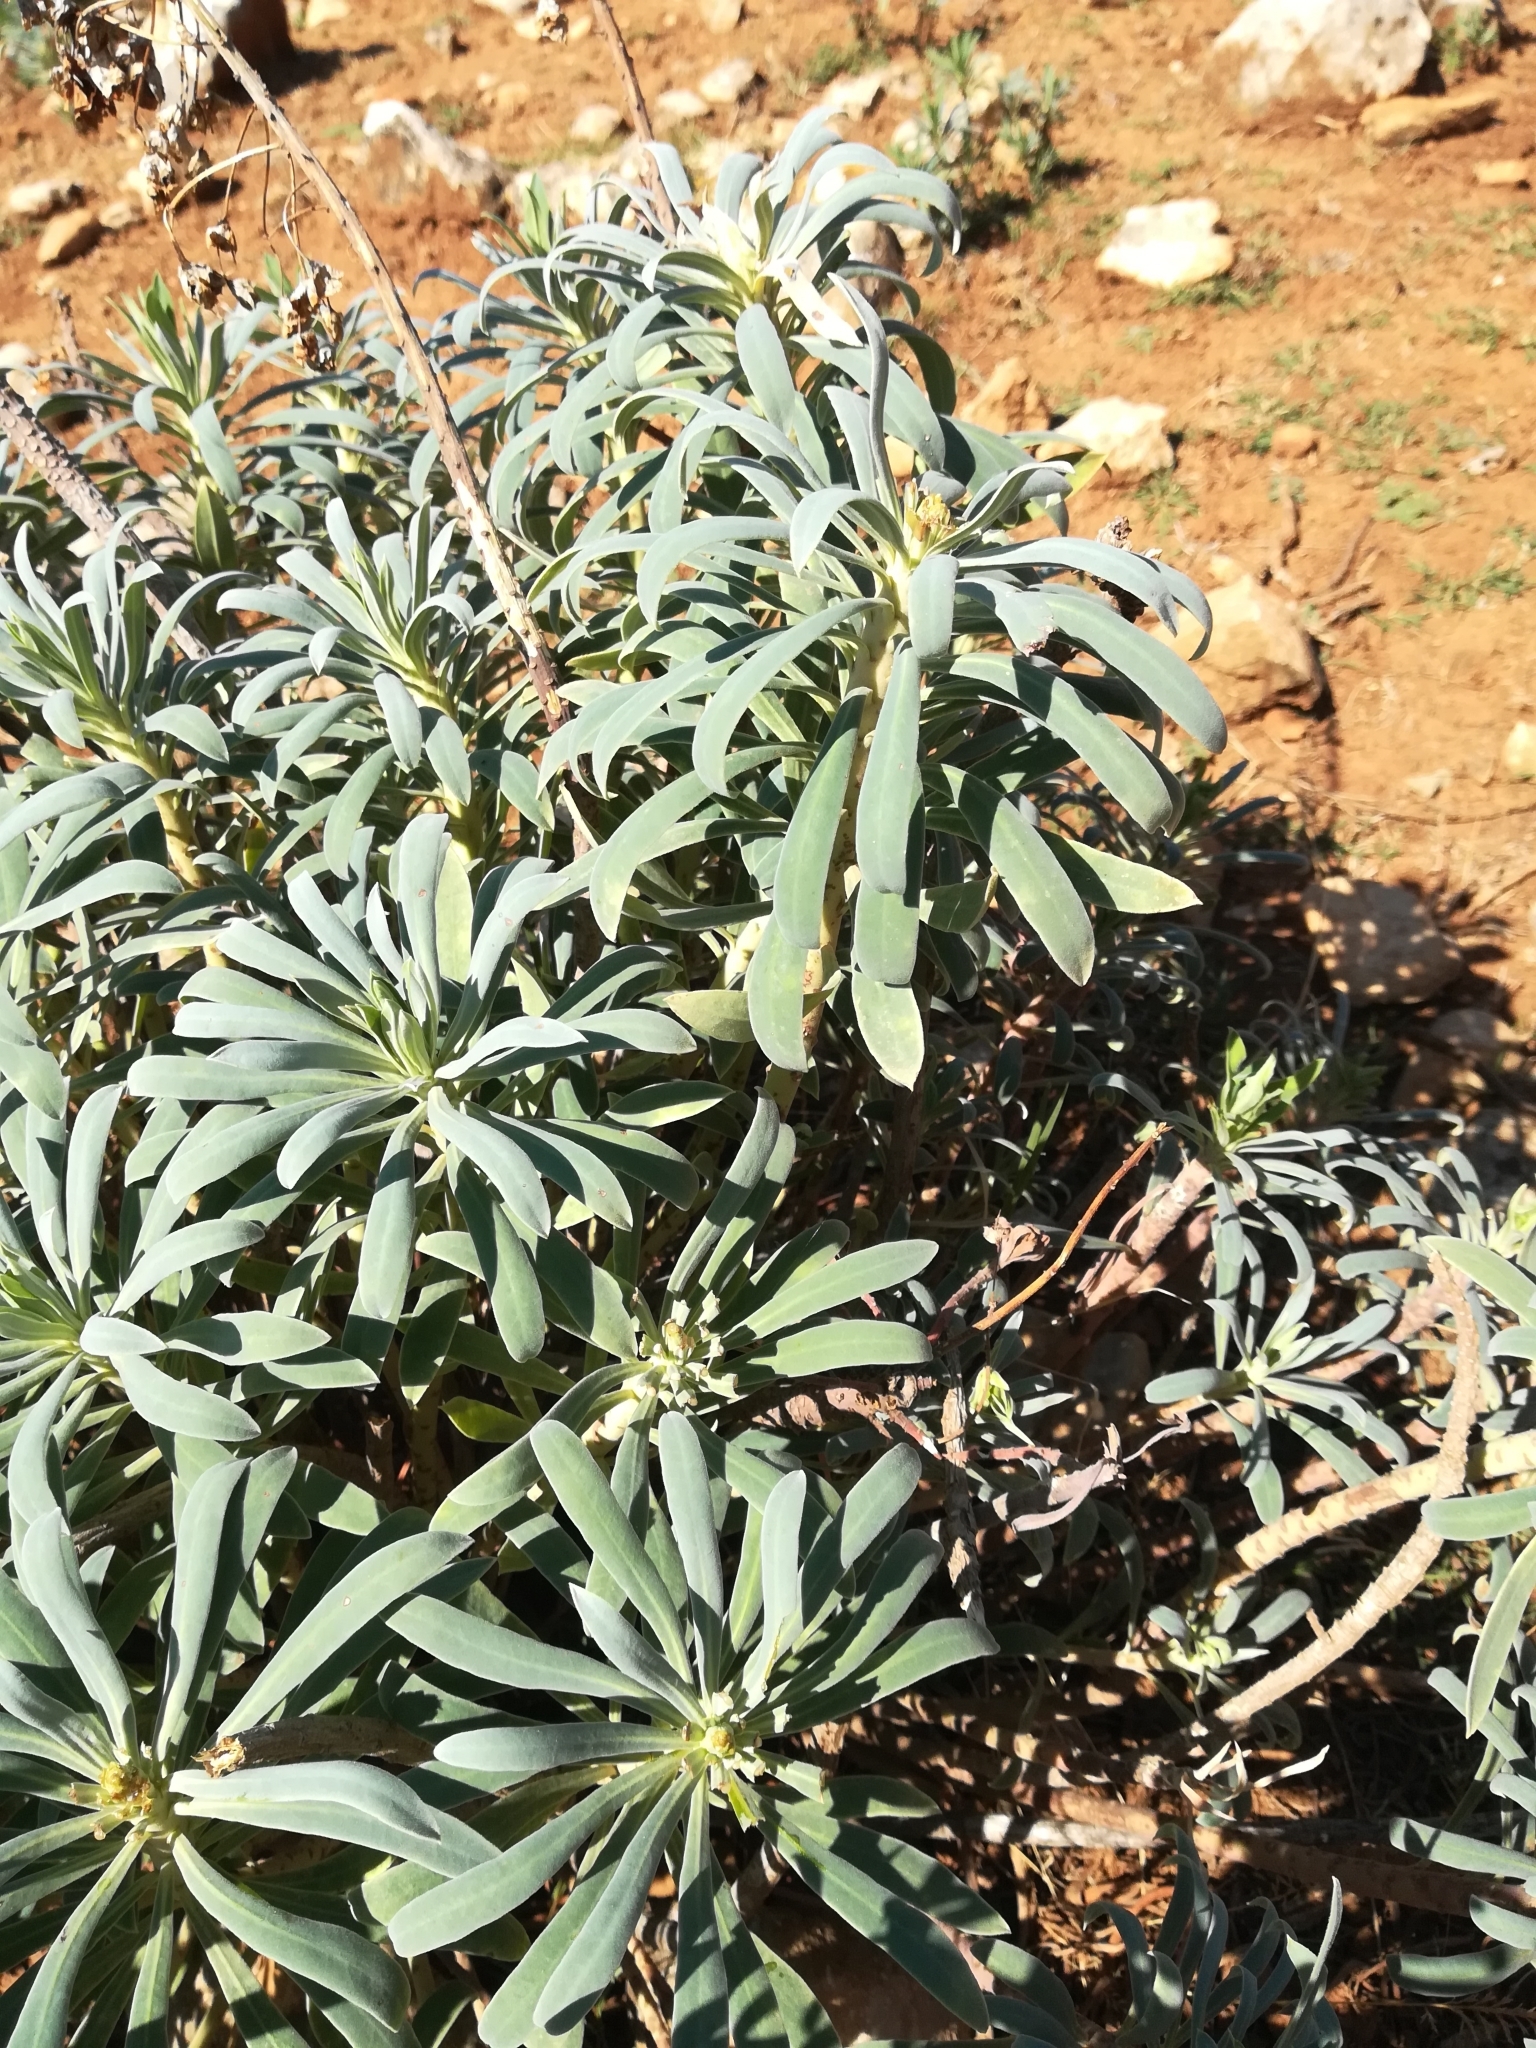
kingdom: Plantae
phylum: Tracheophyta
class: Magnoliopsida
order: Malpighiales
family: Euphorbiaceae
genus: Euphorbia
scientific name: Euphorbia characias
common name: Mediterranean spurge
